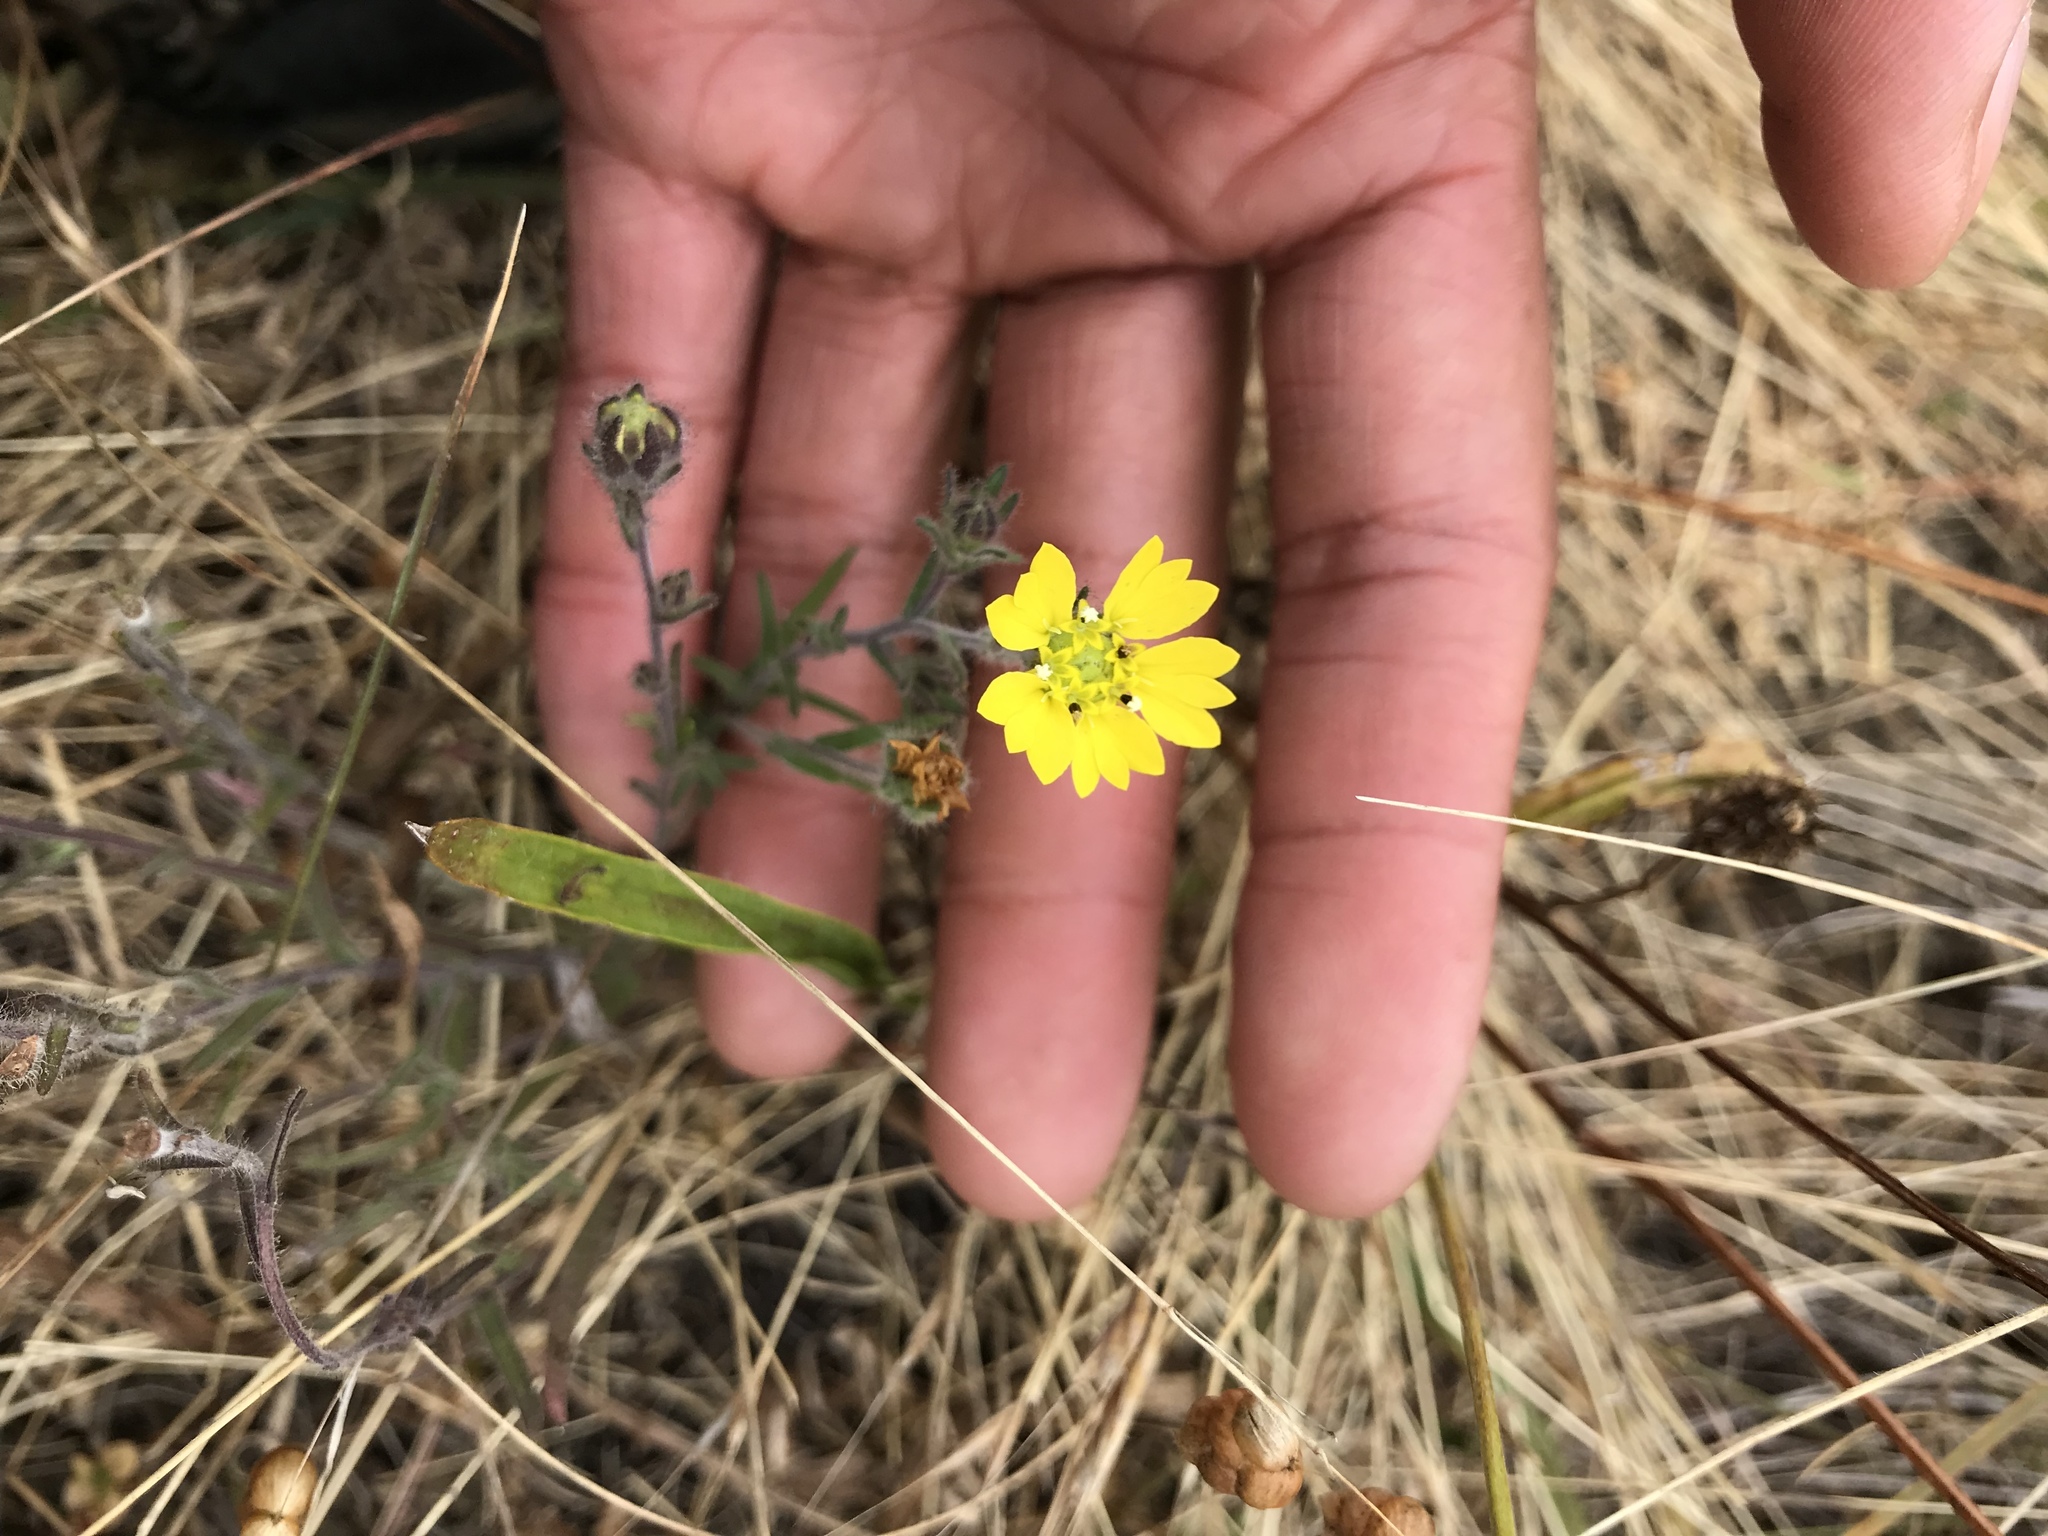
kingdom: Plantae
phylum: Tracheophyta
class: Magnoliopsida
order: Asterales
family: Asteraceae
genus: Hemizonia
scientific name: Hemizonia congesta
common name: Hayfield tarweed
